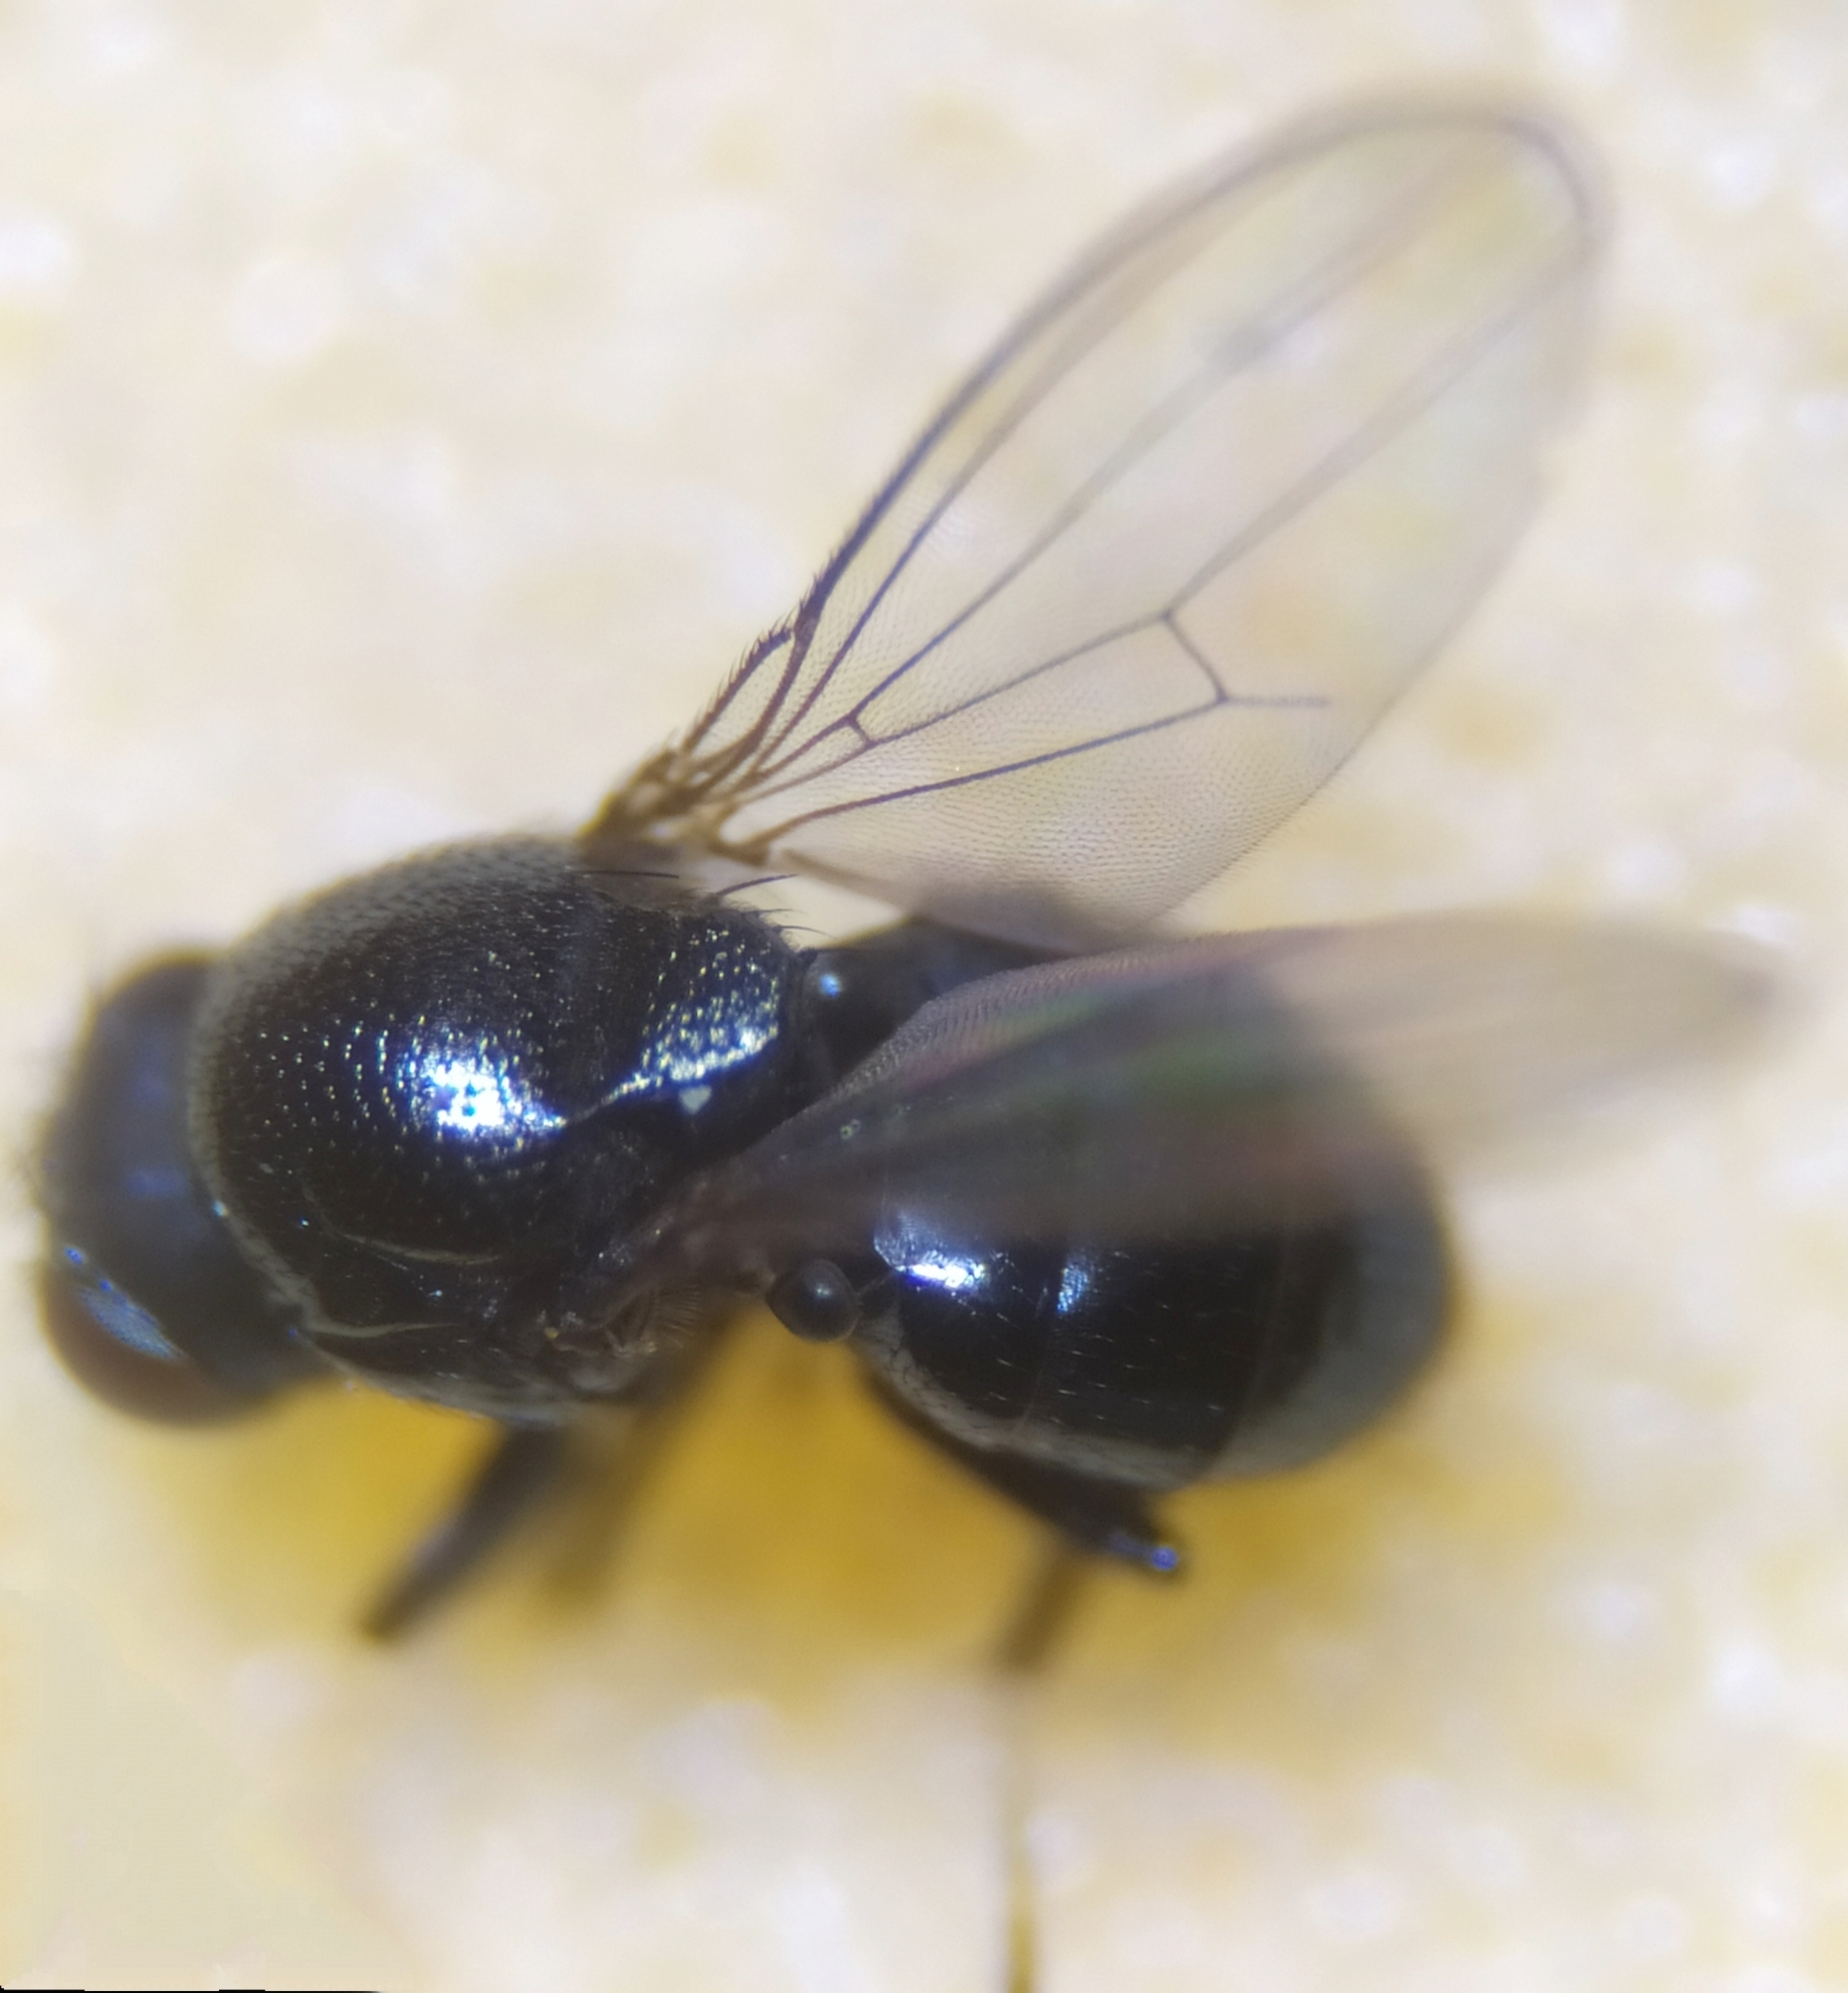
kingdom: Animalia
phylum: Arthropoda
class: Insecta
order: Diptera
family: Ephydridae
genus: Athyroglossa
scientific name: Athyroglossa glabra
